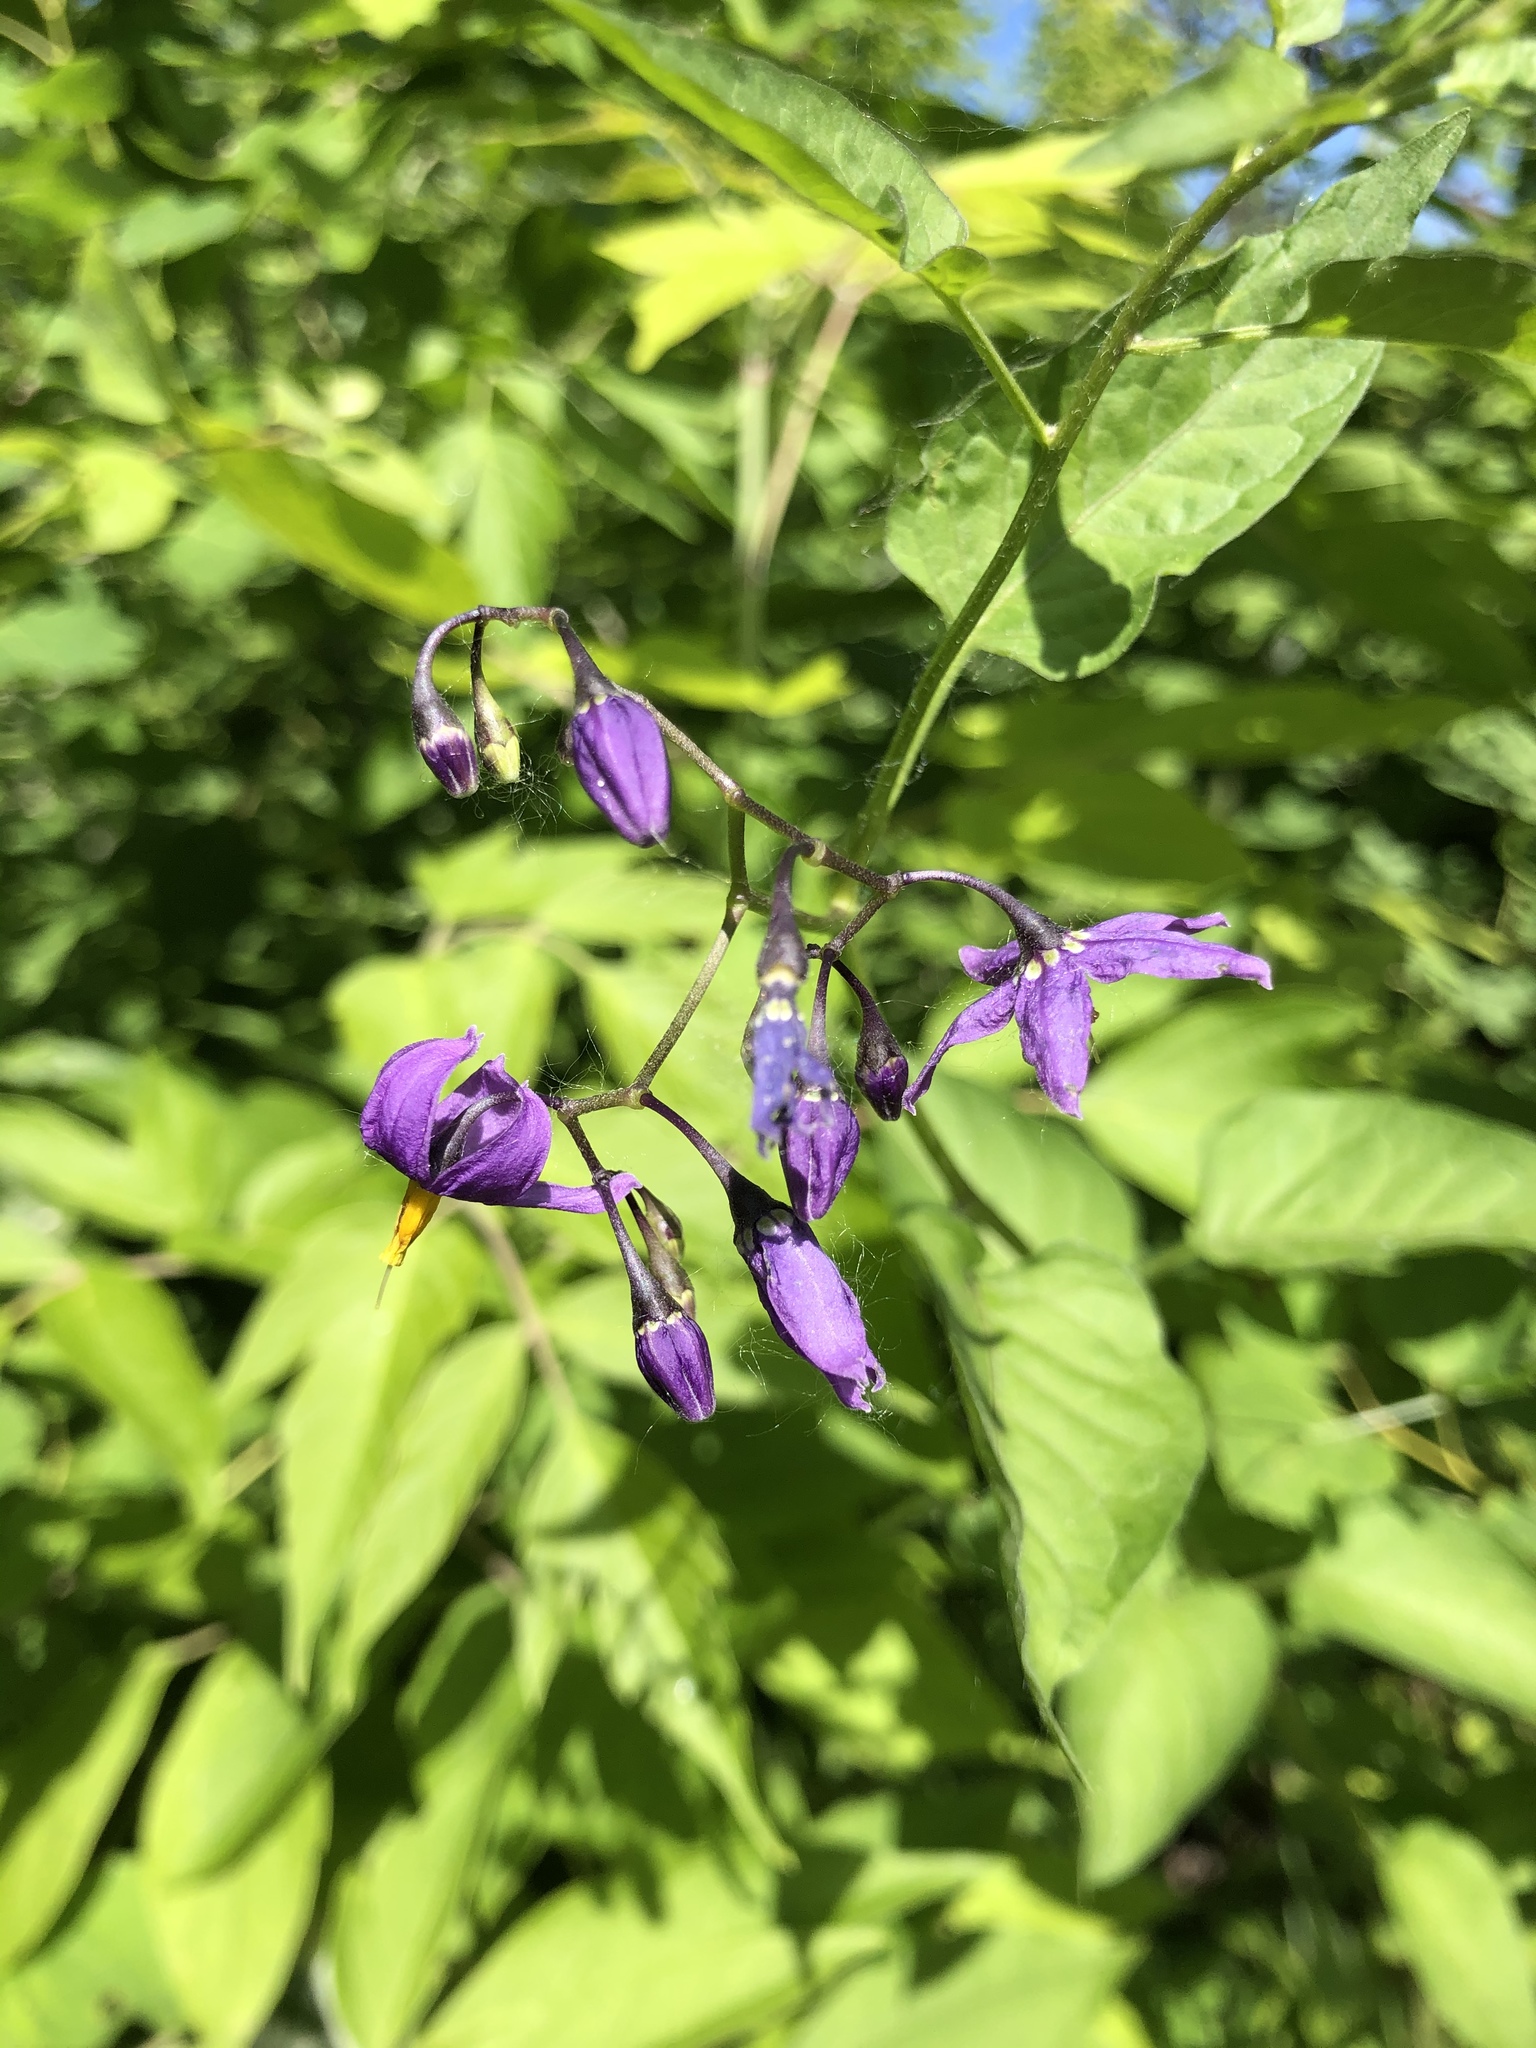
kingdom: Plantae
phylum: Tracheophyta
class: Magnoliopsida
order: Solanales
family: Solanaceae
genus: Solanum
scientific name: Solanum dulcamara
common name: Climbing nightshade
